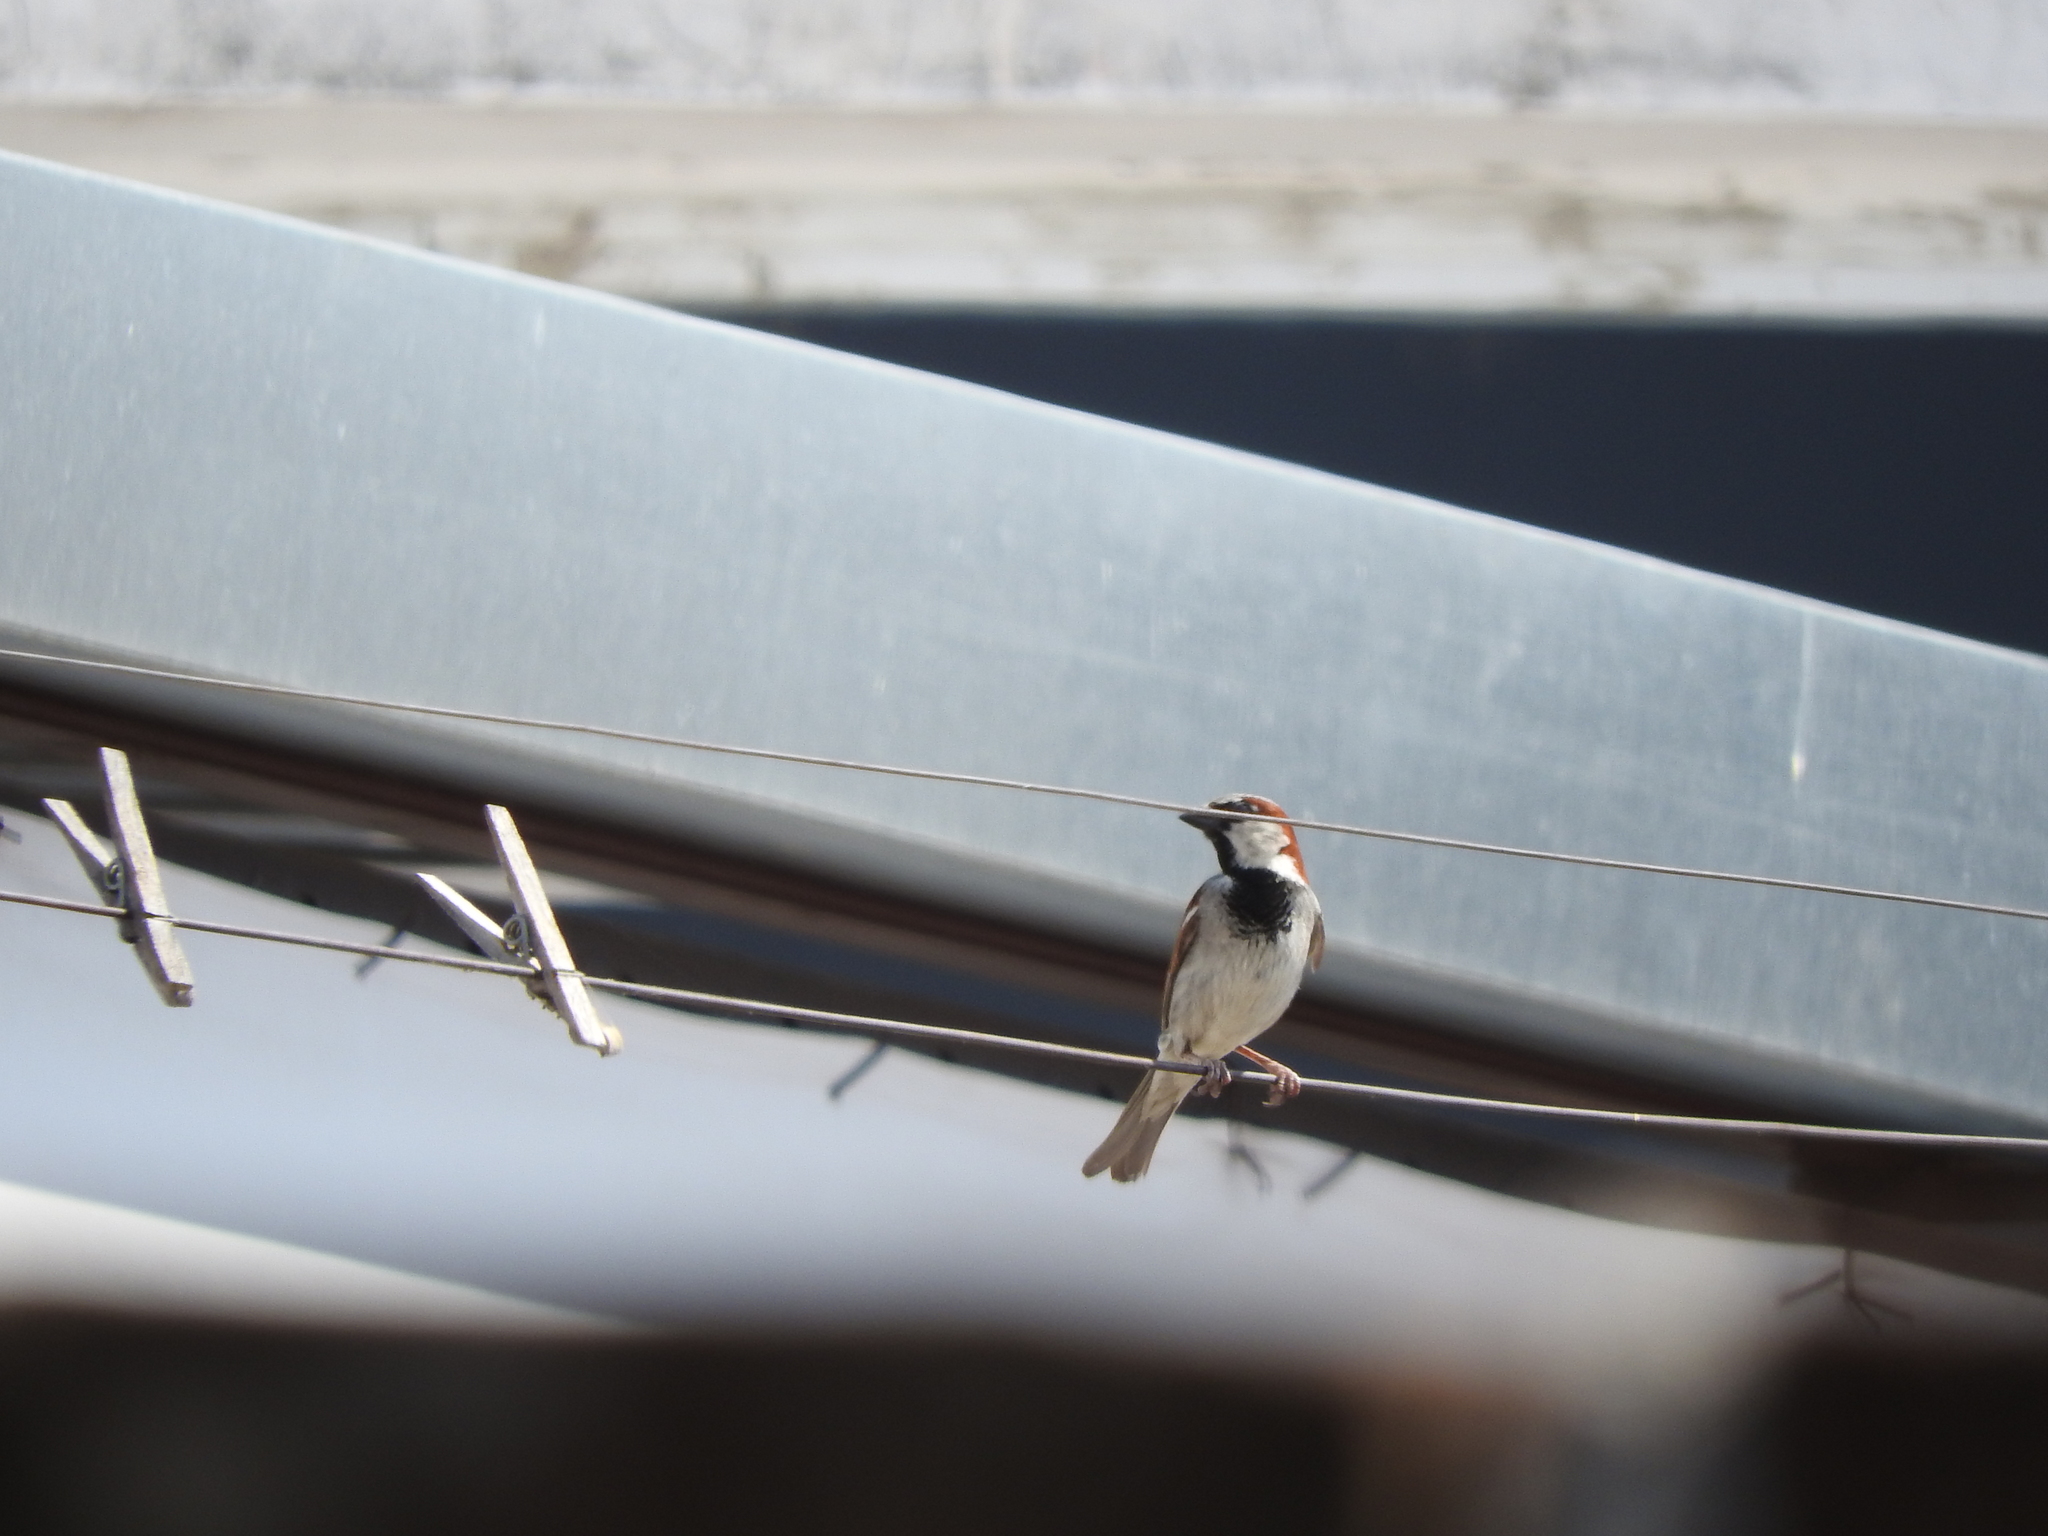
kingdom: Animalia
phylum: Chordata
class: Aves
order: Passeriformes
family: Passeridae
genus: Passer
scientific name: Passer domesticus
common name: House sparrow
